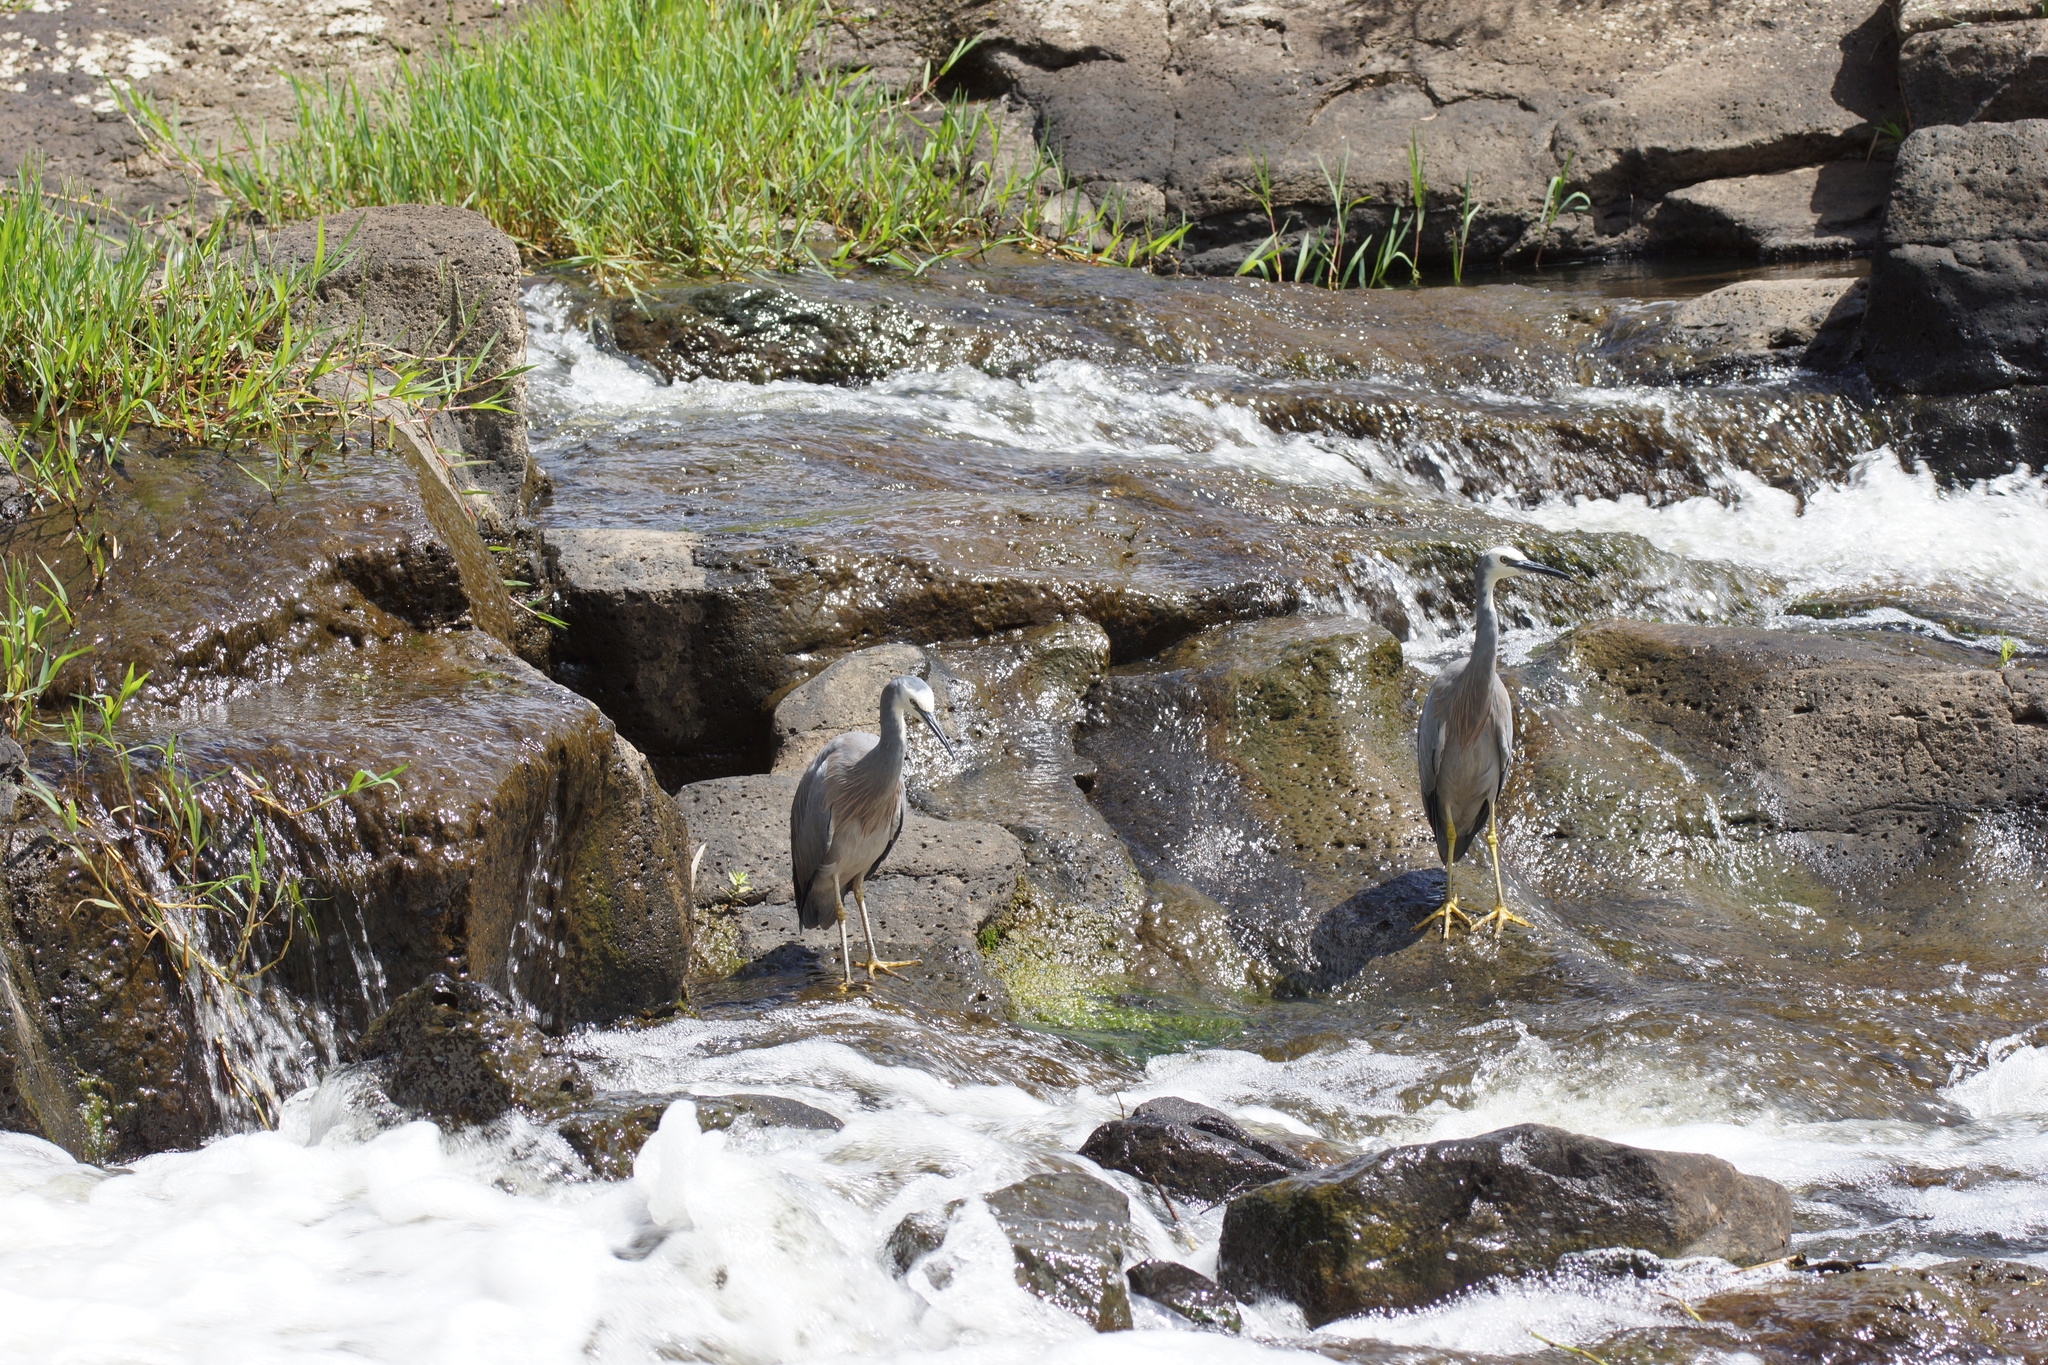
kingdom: Animalia
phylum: Chordata
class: Aves
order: Pelecaniformes
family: Ardeidae
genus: Egretta
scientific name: Egretta novaehollandiae
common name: White-faced heron
